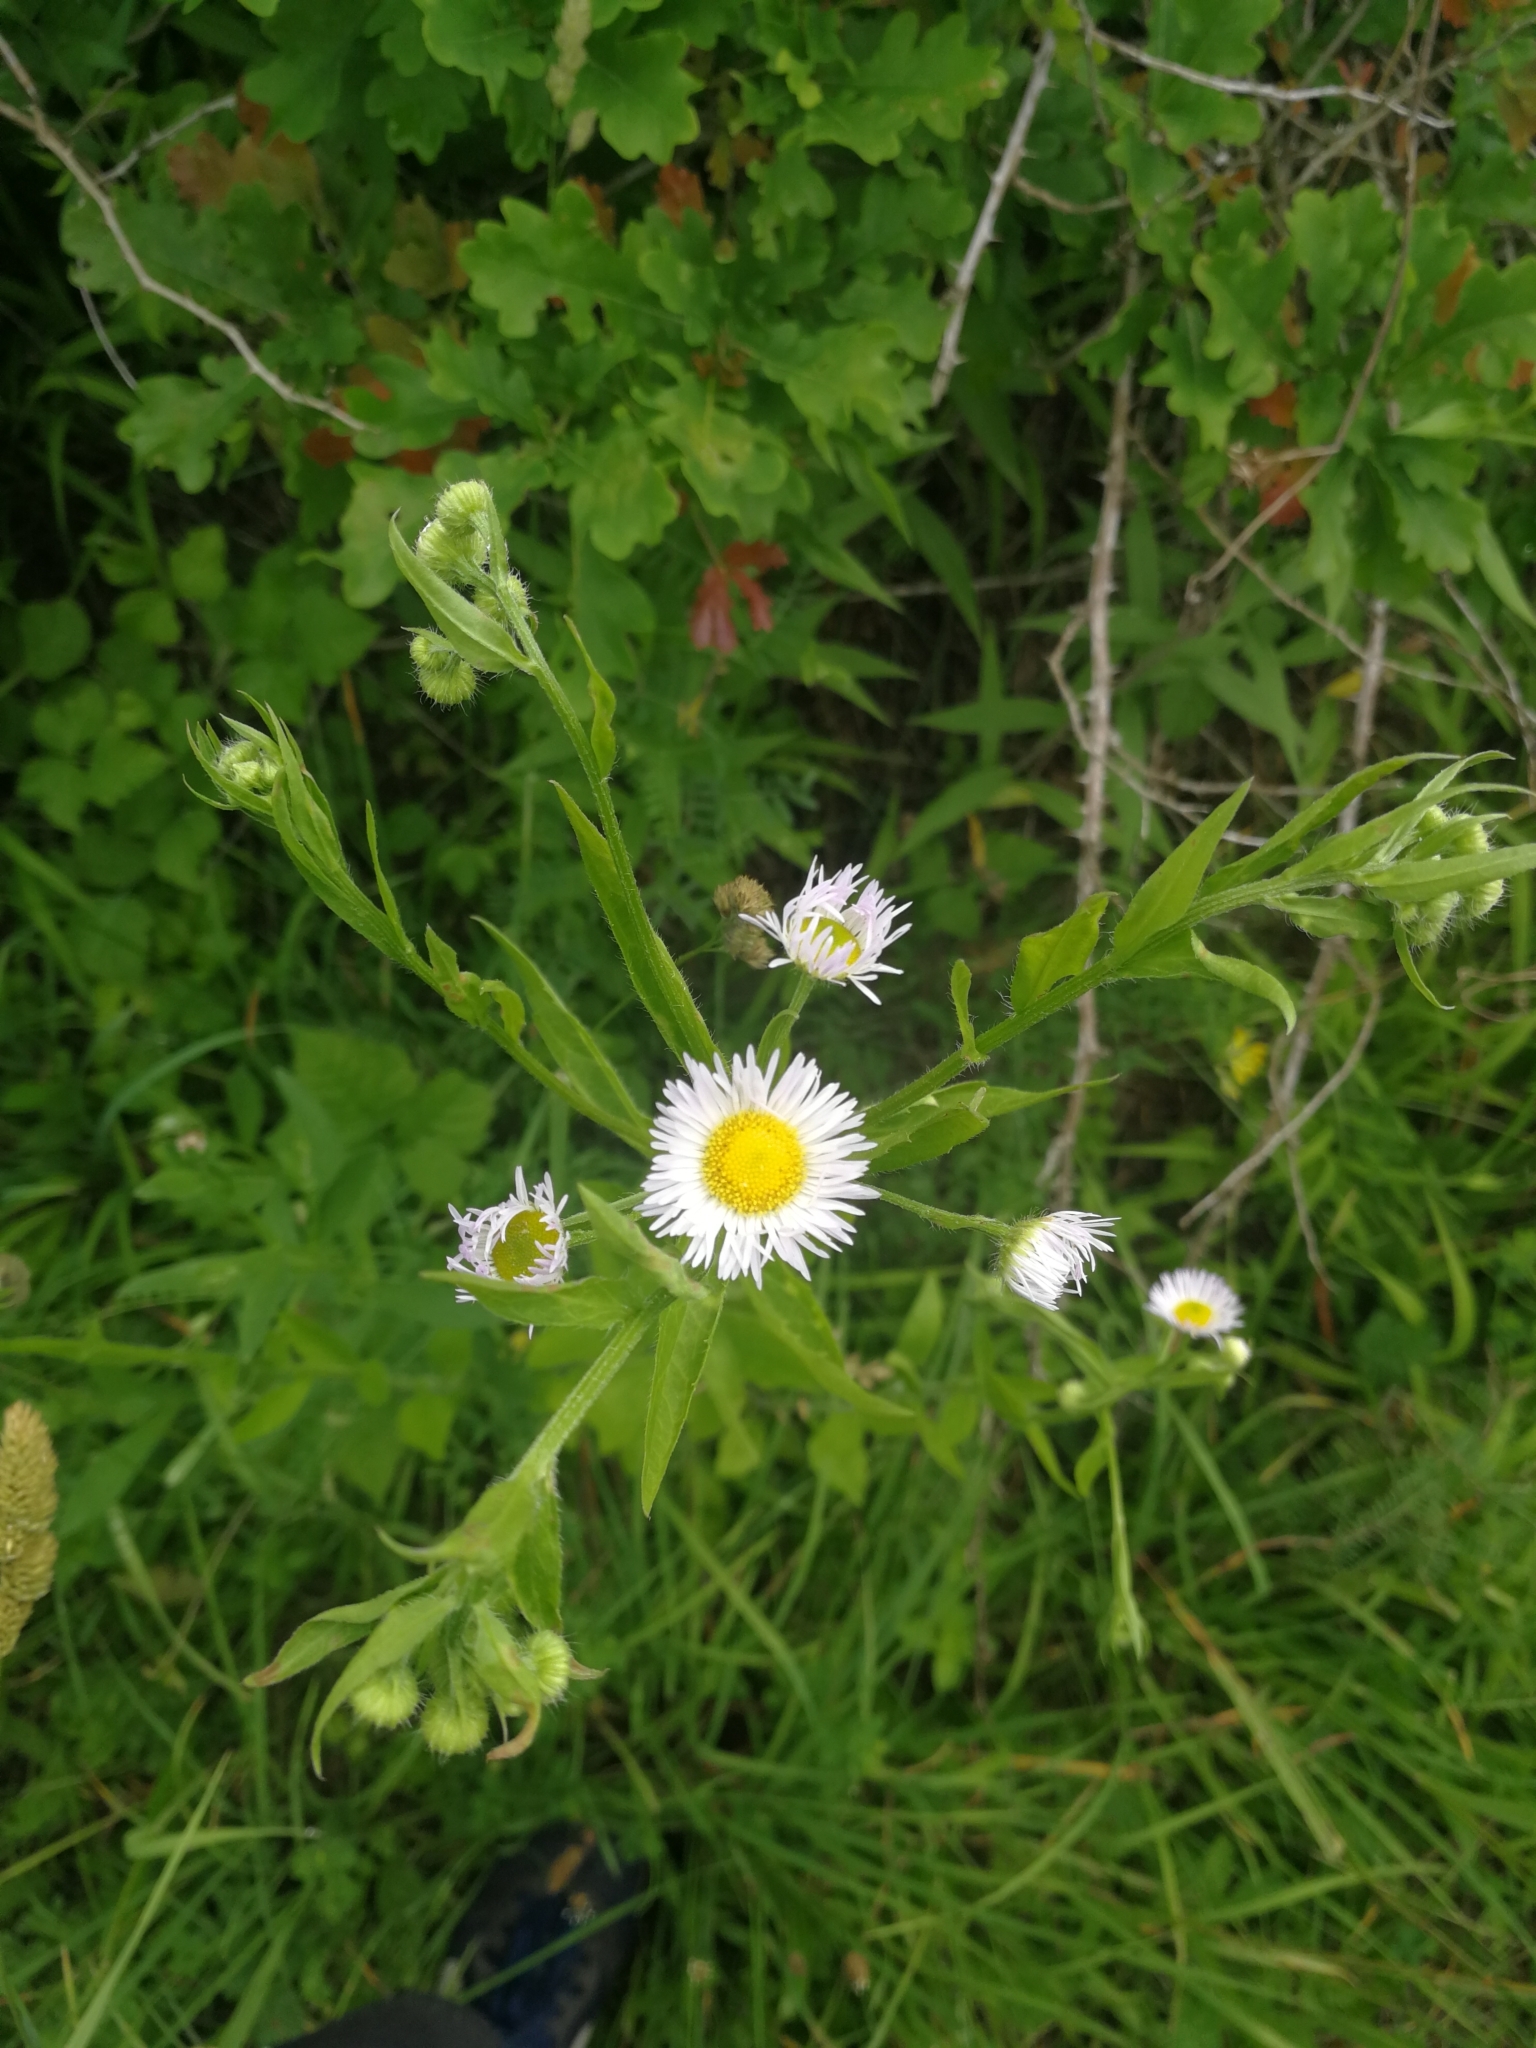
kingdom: Plantae
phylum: Tracheophyta
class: Magnoliopsida
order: Asterales
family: Asteraceae
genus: Erigeron
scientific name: Erigeron annuus
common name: Tall fleabane
